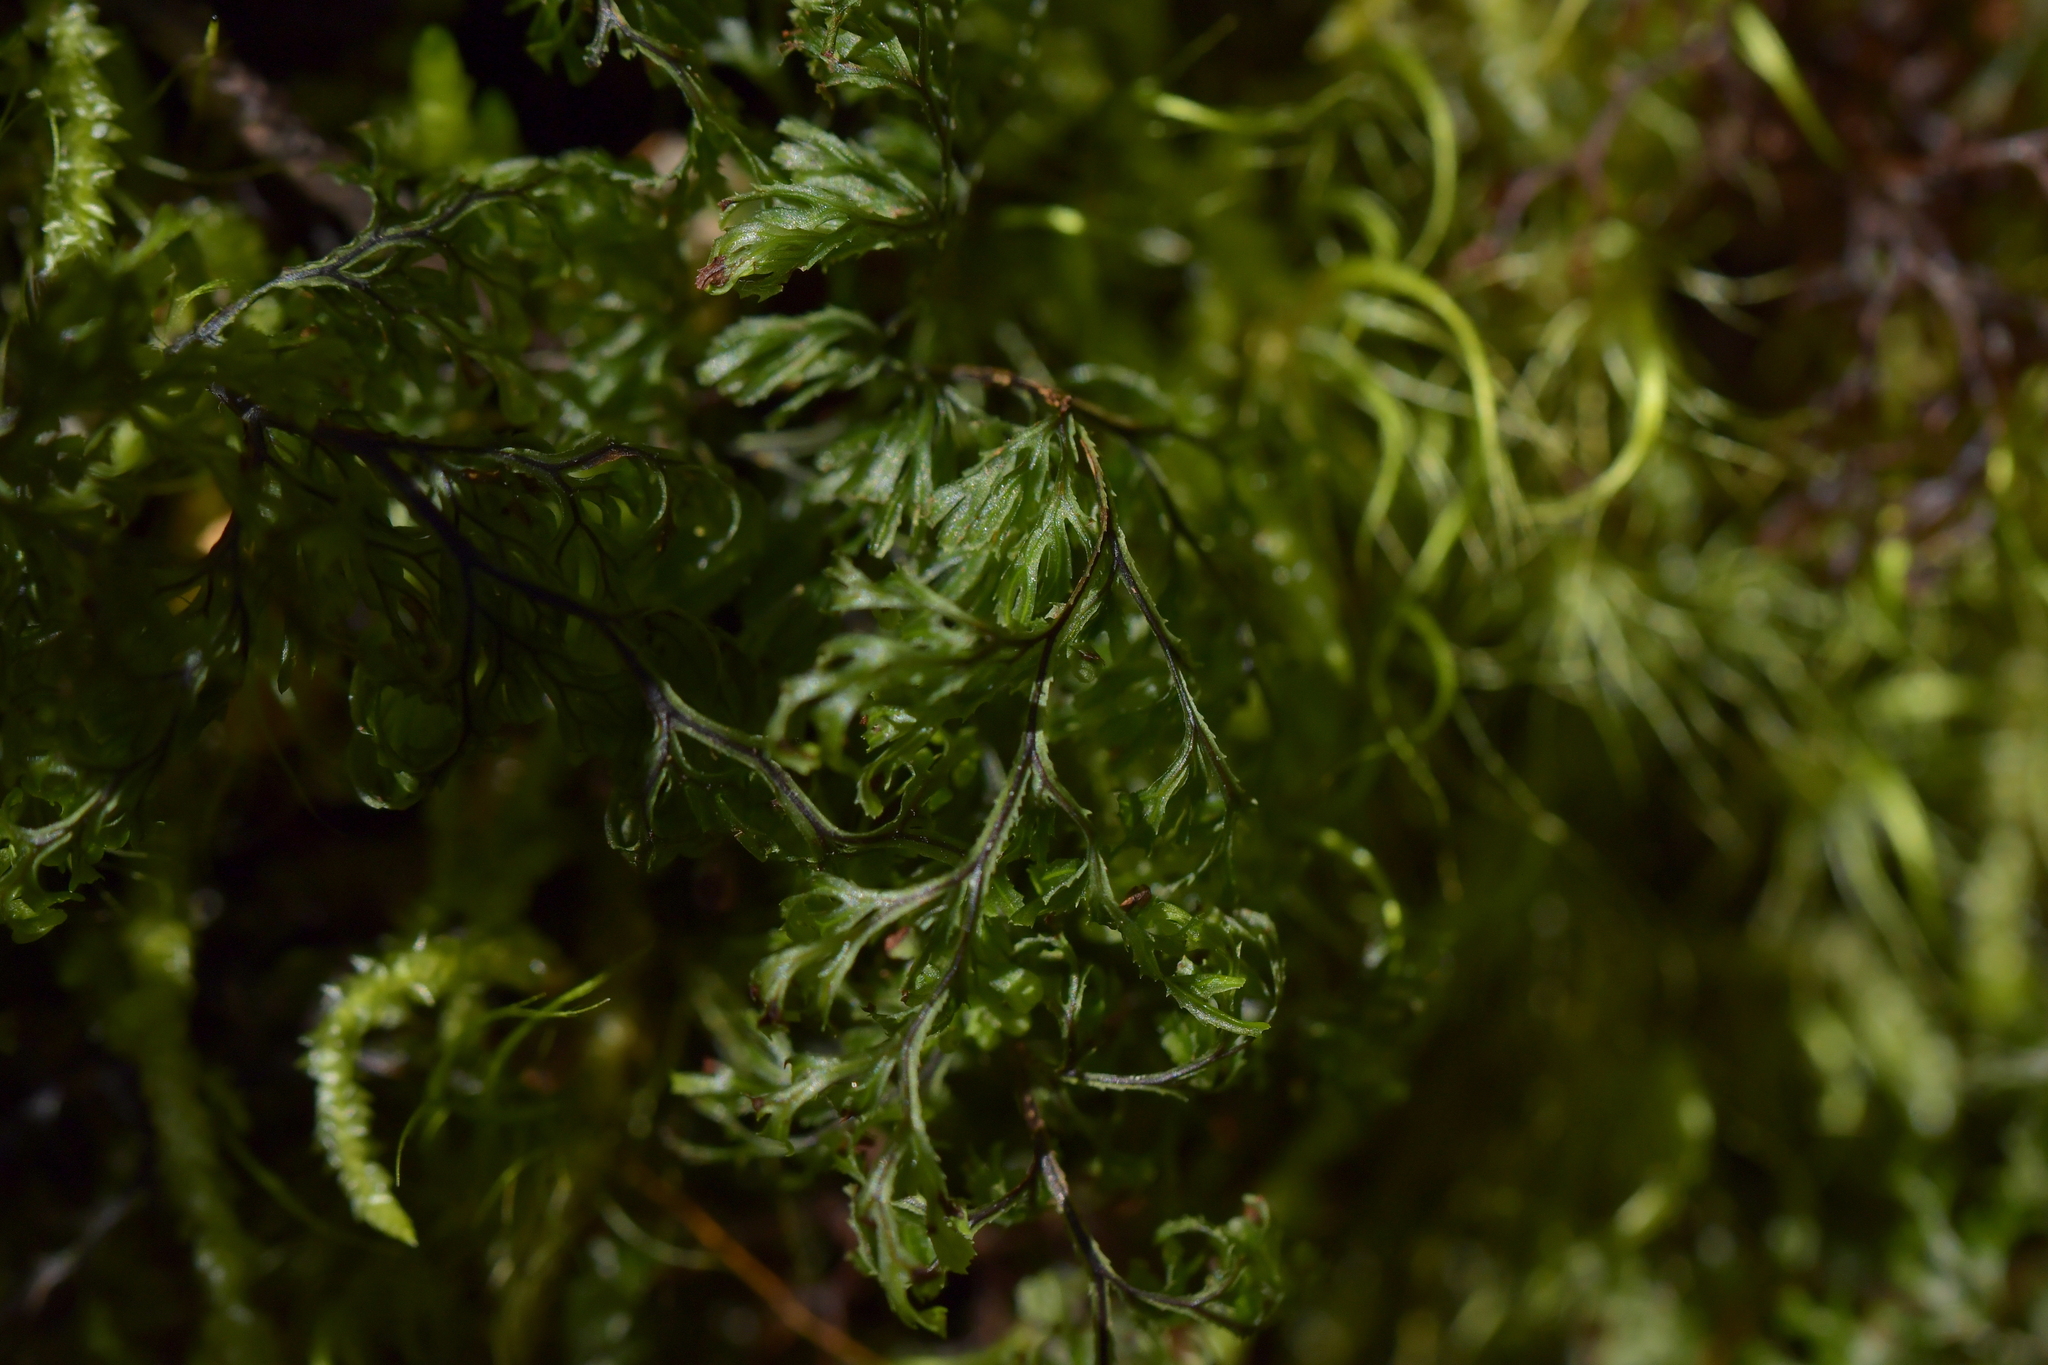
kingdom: Plantae
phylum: Tracheophyta
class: Polypodiopsida
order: Hymenophyllales
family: Hymenophyllaceae
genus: Hymenophyllum
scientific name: Hymenophyllum multifidum
